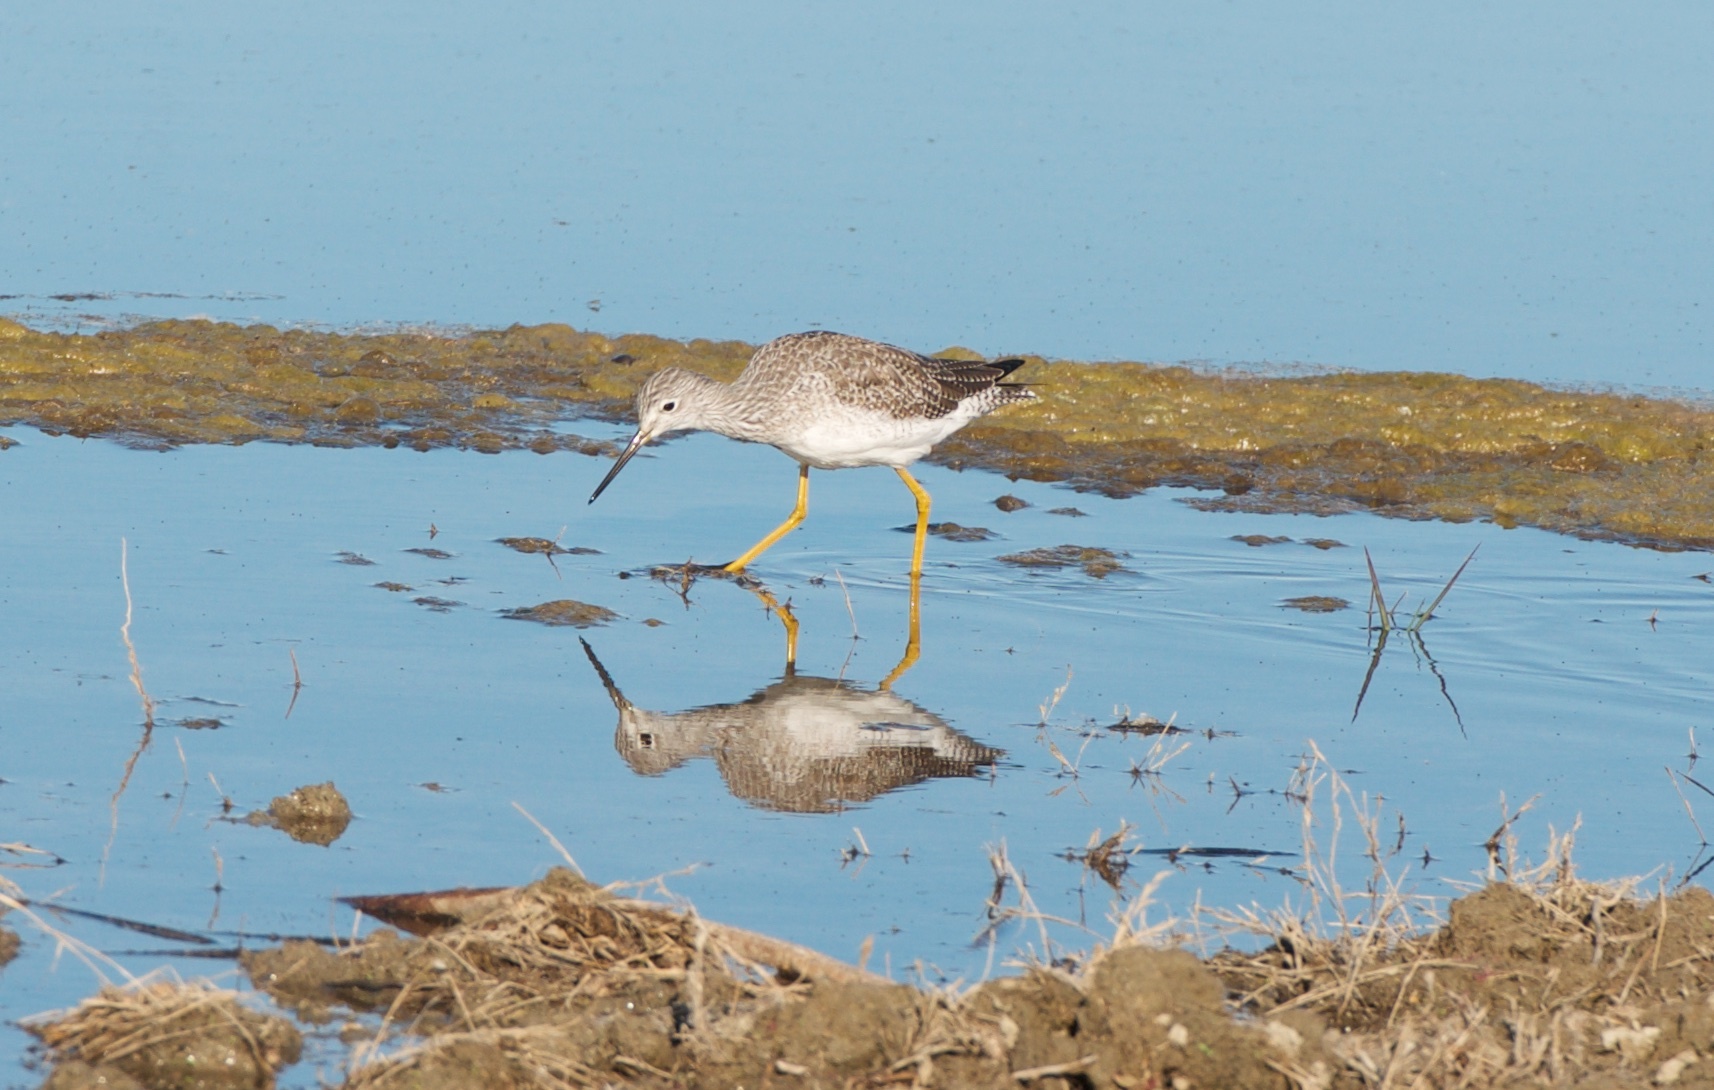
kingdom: Animalia
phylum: Chordata
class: Aves
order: Charadriiformes
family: Scolopacidae
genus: Tringa
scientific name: Tringa melanoleuca
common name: Greater yellowlegs
